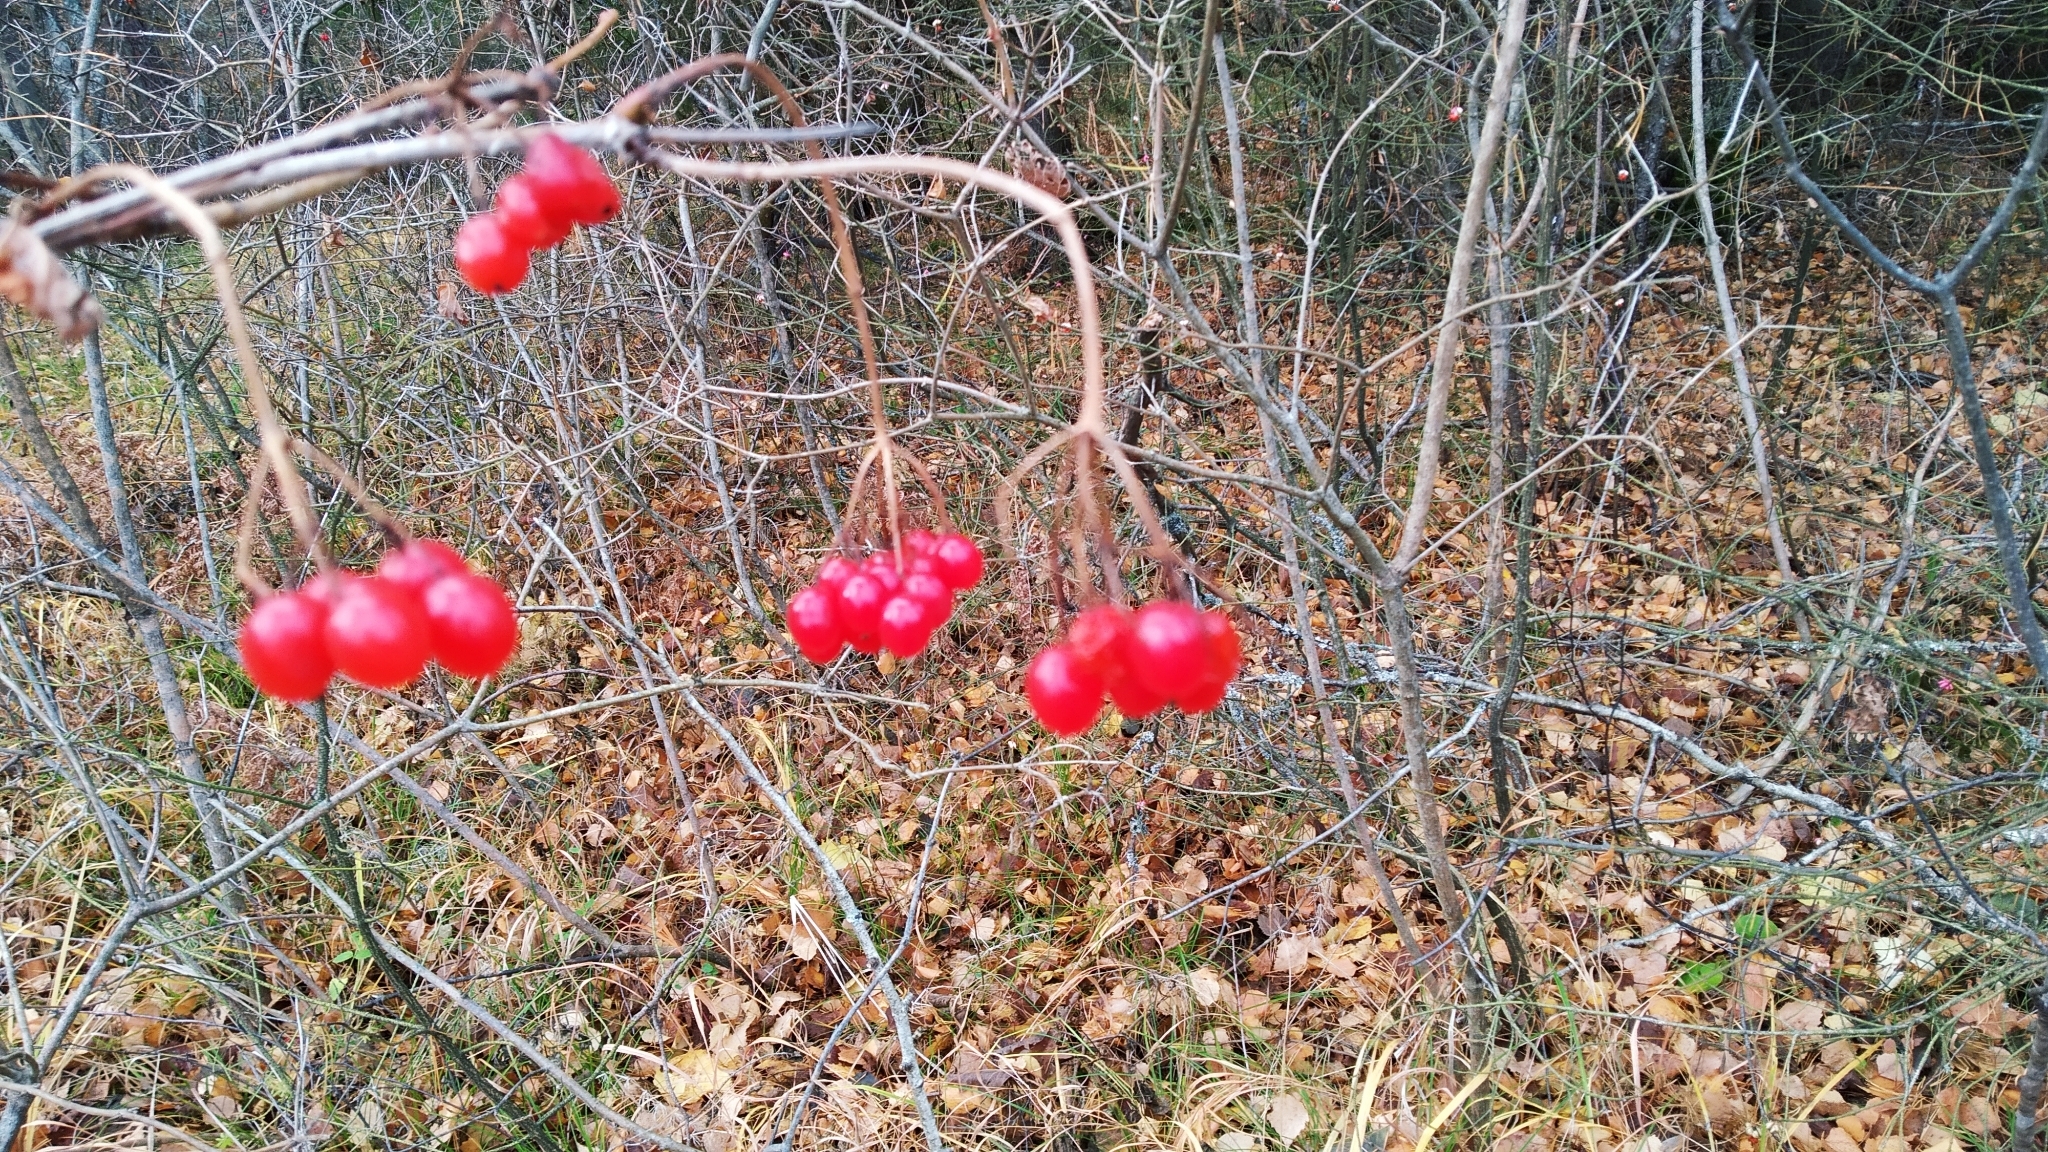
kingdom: Plantae
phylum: Tracheophyta
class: Magnoliopsida
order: Dipsacales
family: Viburnaceae
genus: Viburnum
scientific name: Viburnum opulus
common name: Guelder-rose
